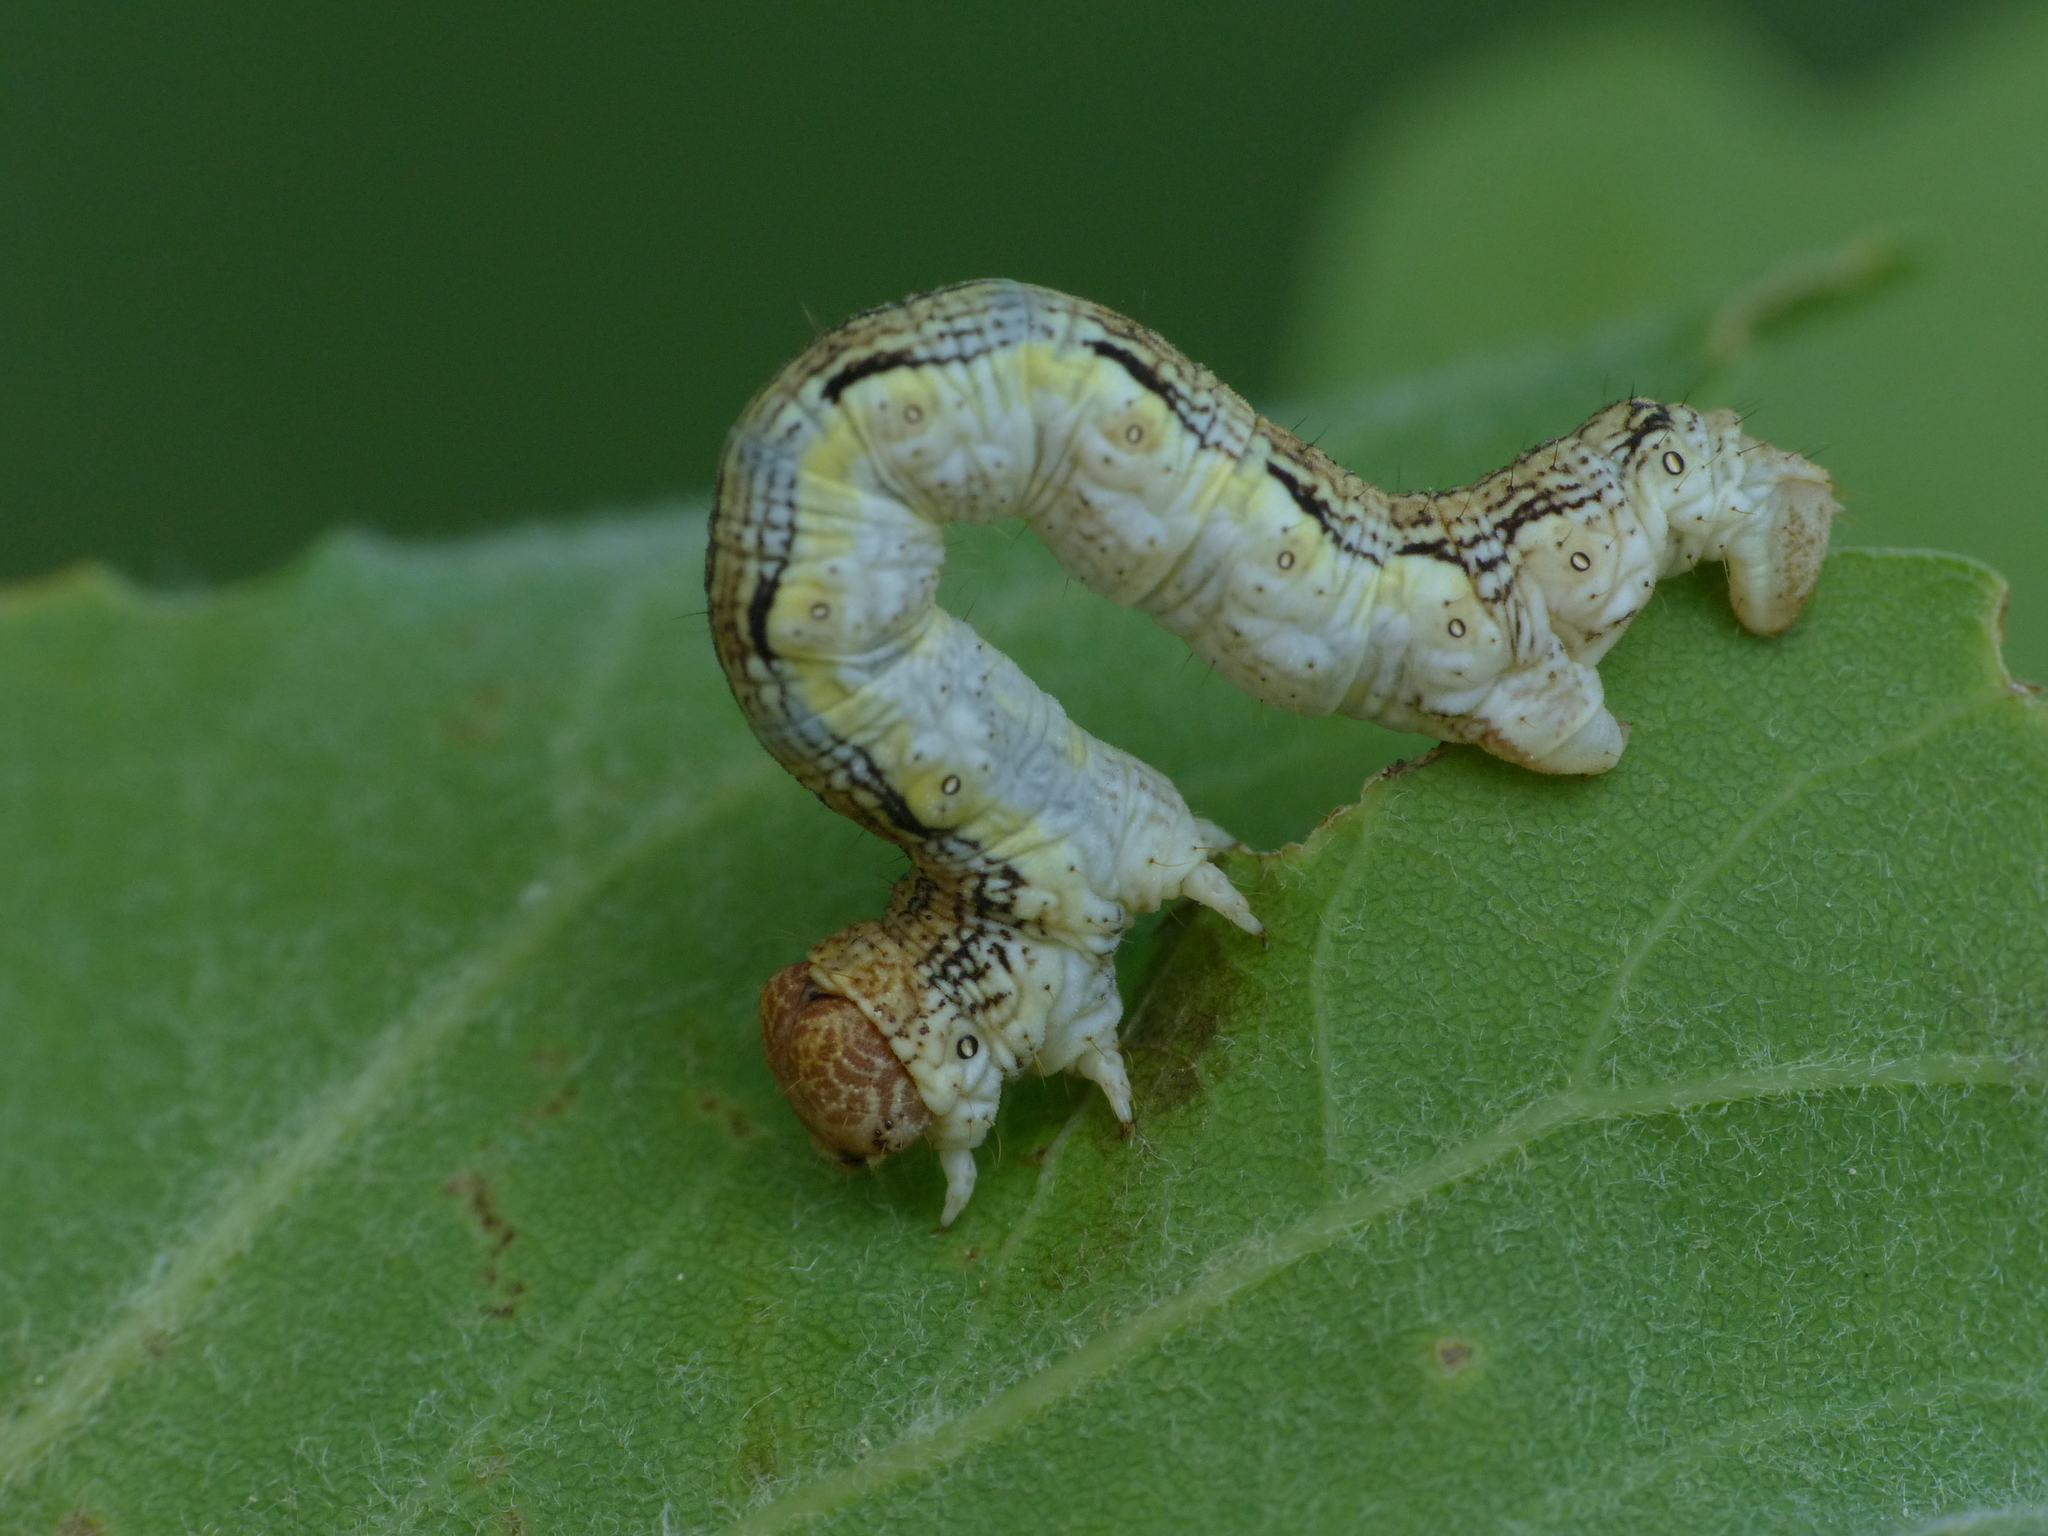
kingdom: Animalia
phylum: Arthropoda
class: Insecta
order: Lepidoptera
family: Geometridae
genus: Erannis
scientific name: Erannis defoliaria
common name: Mottled umber
